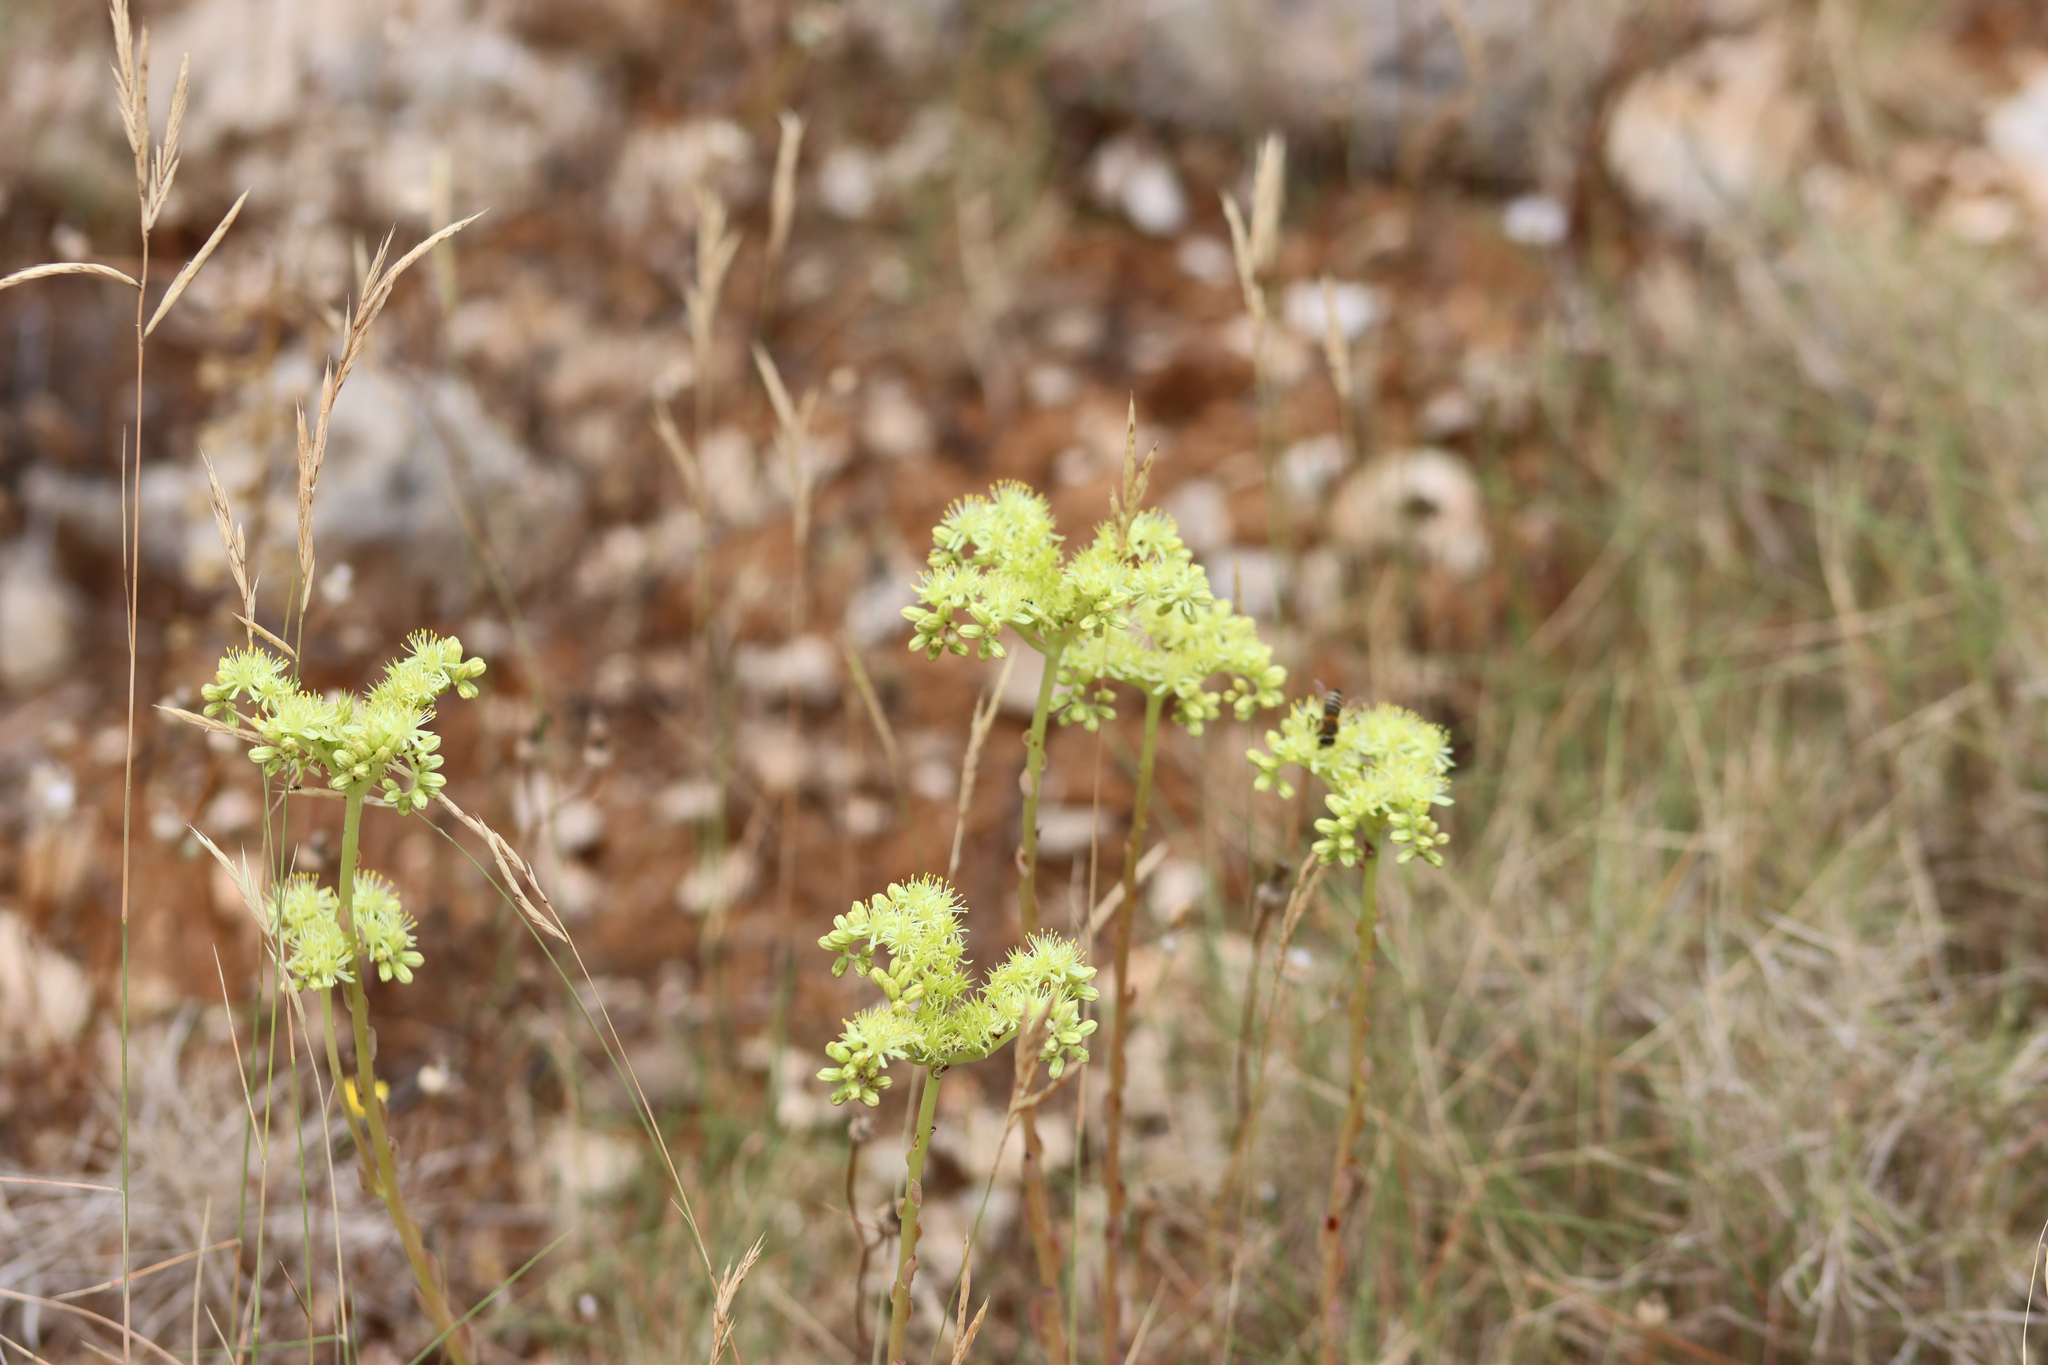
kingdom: Plantae
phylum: Tracheophyta
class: Magnoliopsida
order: Saxifragales
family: Crassulaceae
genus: Petrosedum
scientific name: Petrosedum sediforme
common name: Pale stonecrop
